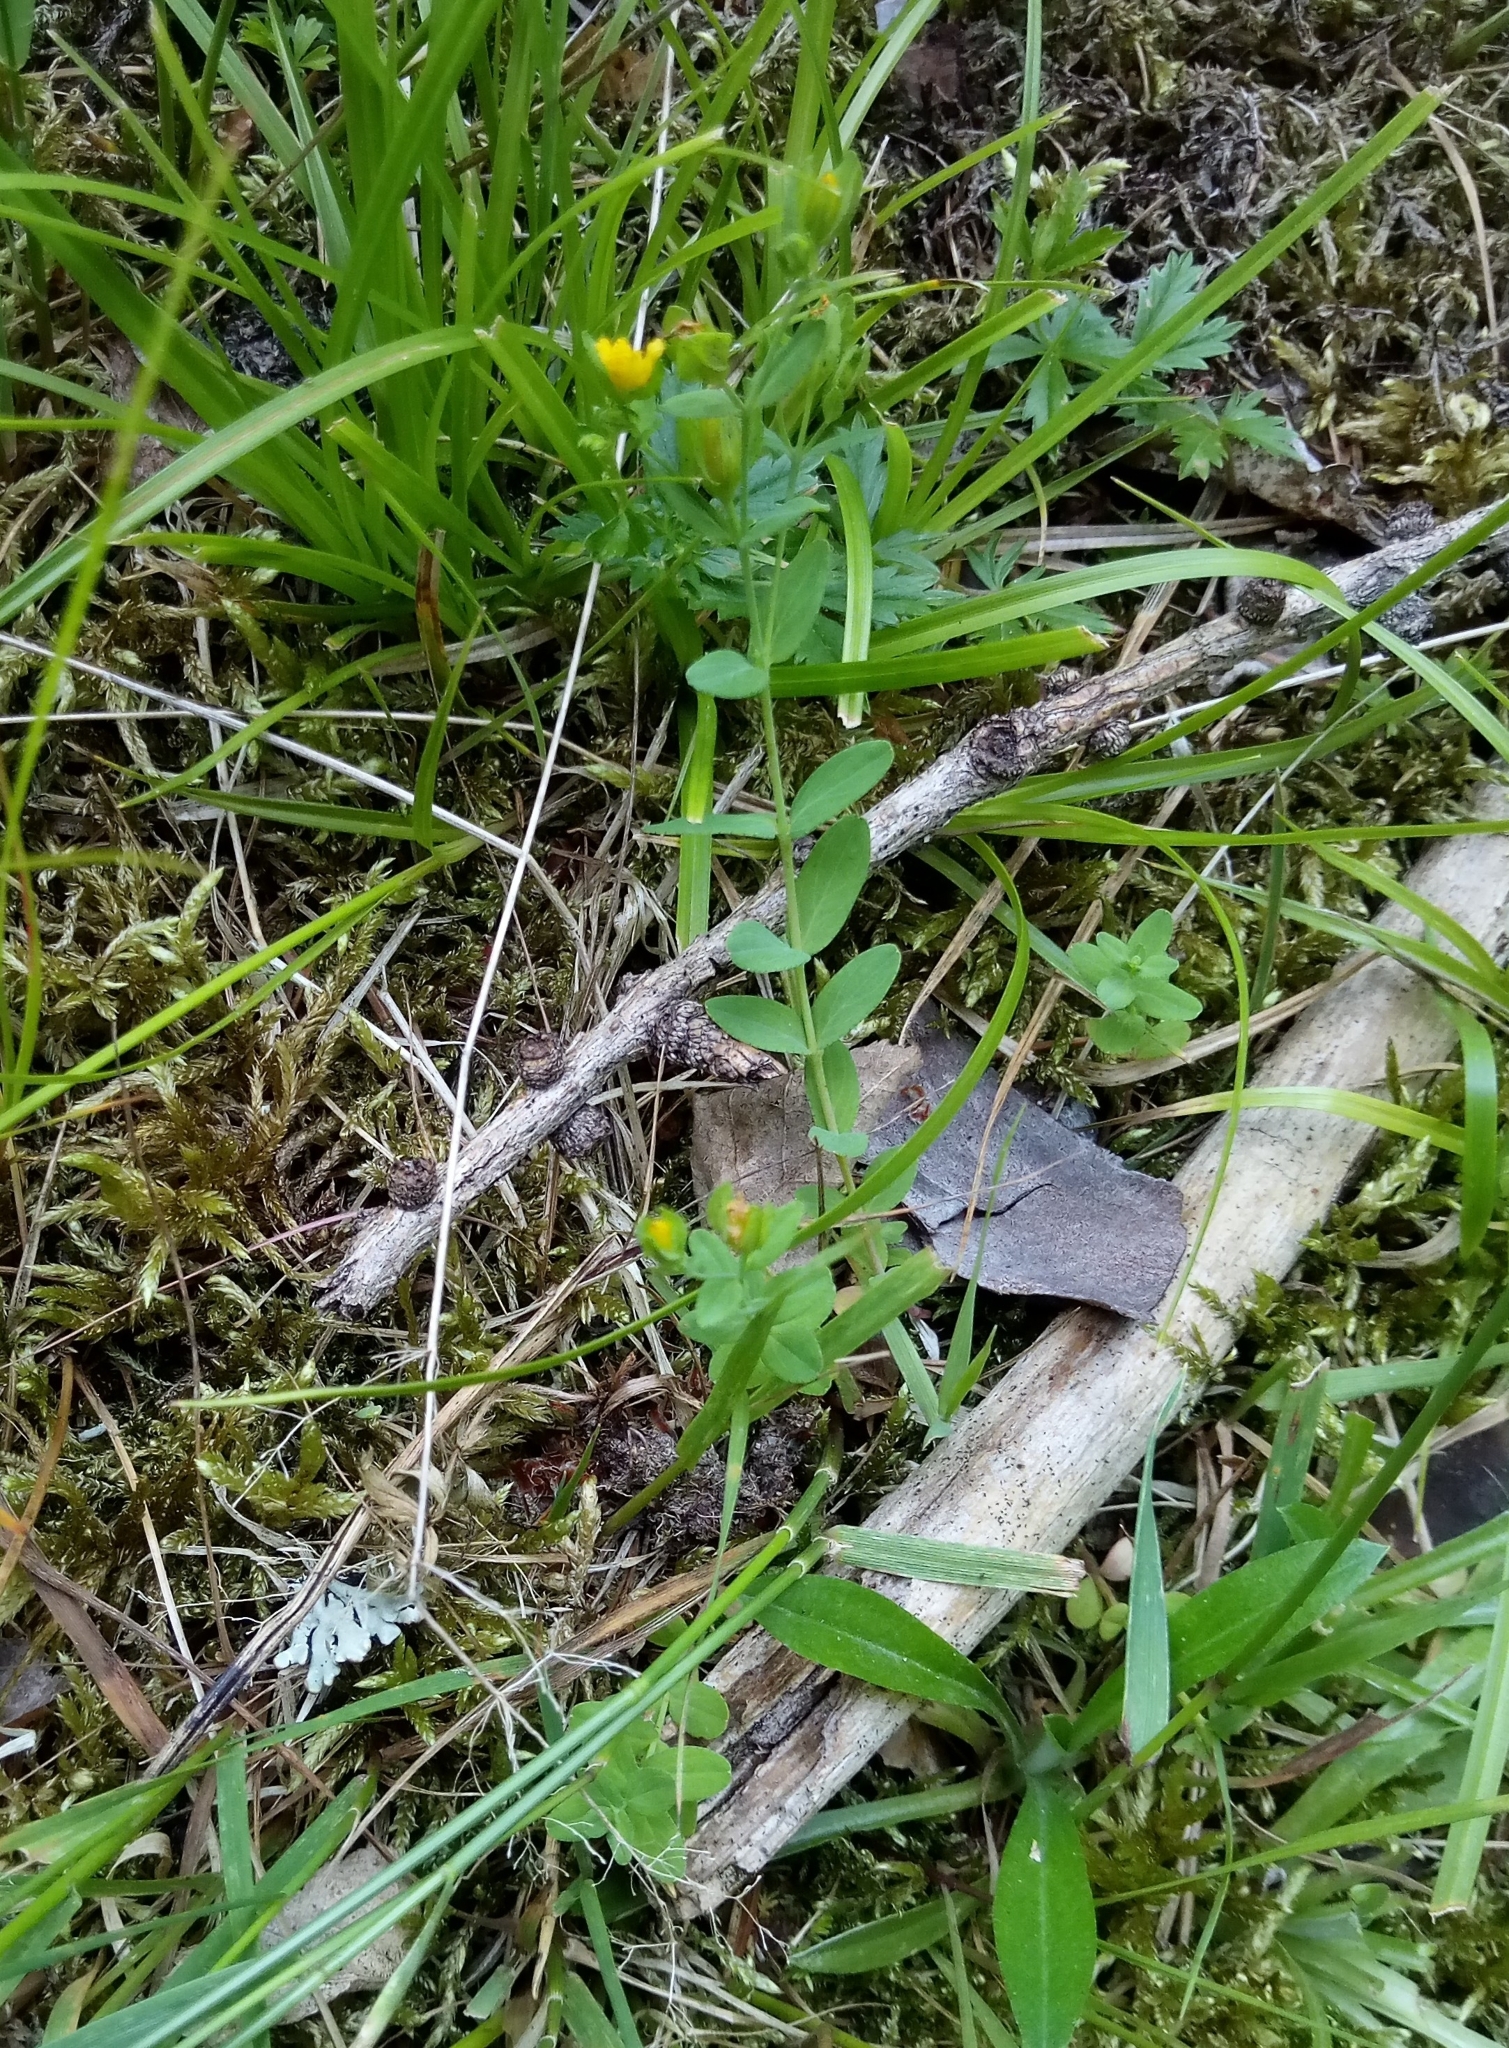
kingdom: Plantae
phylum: Tracheophyta
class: Magnoliopsida
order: Malpighiales
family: Hypericaceae
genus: Hypericum
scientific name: Hypericum humifusum
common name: Trailing st. john's-wort
